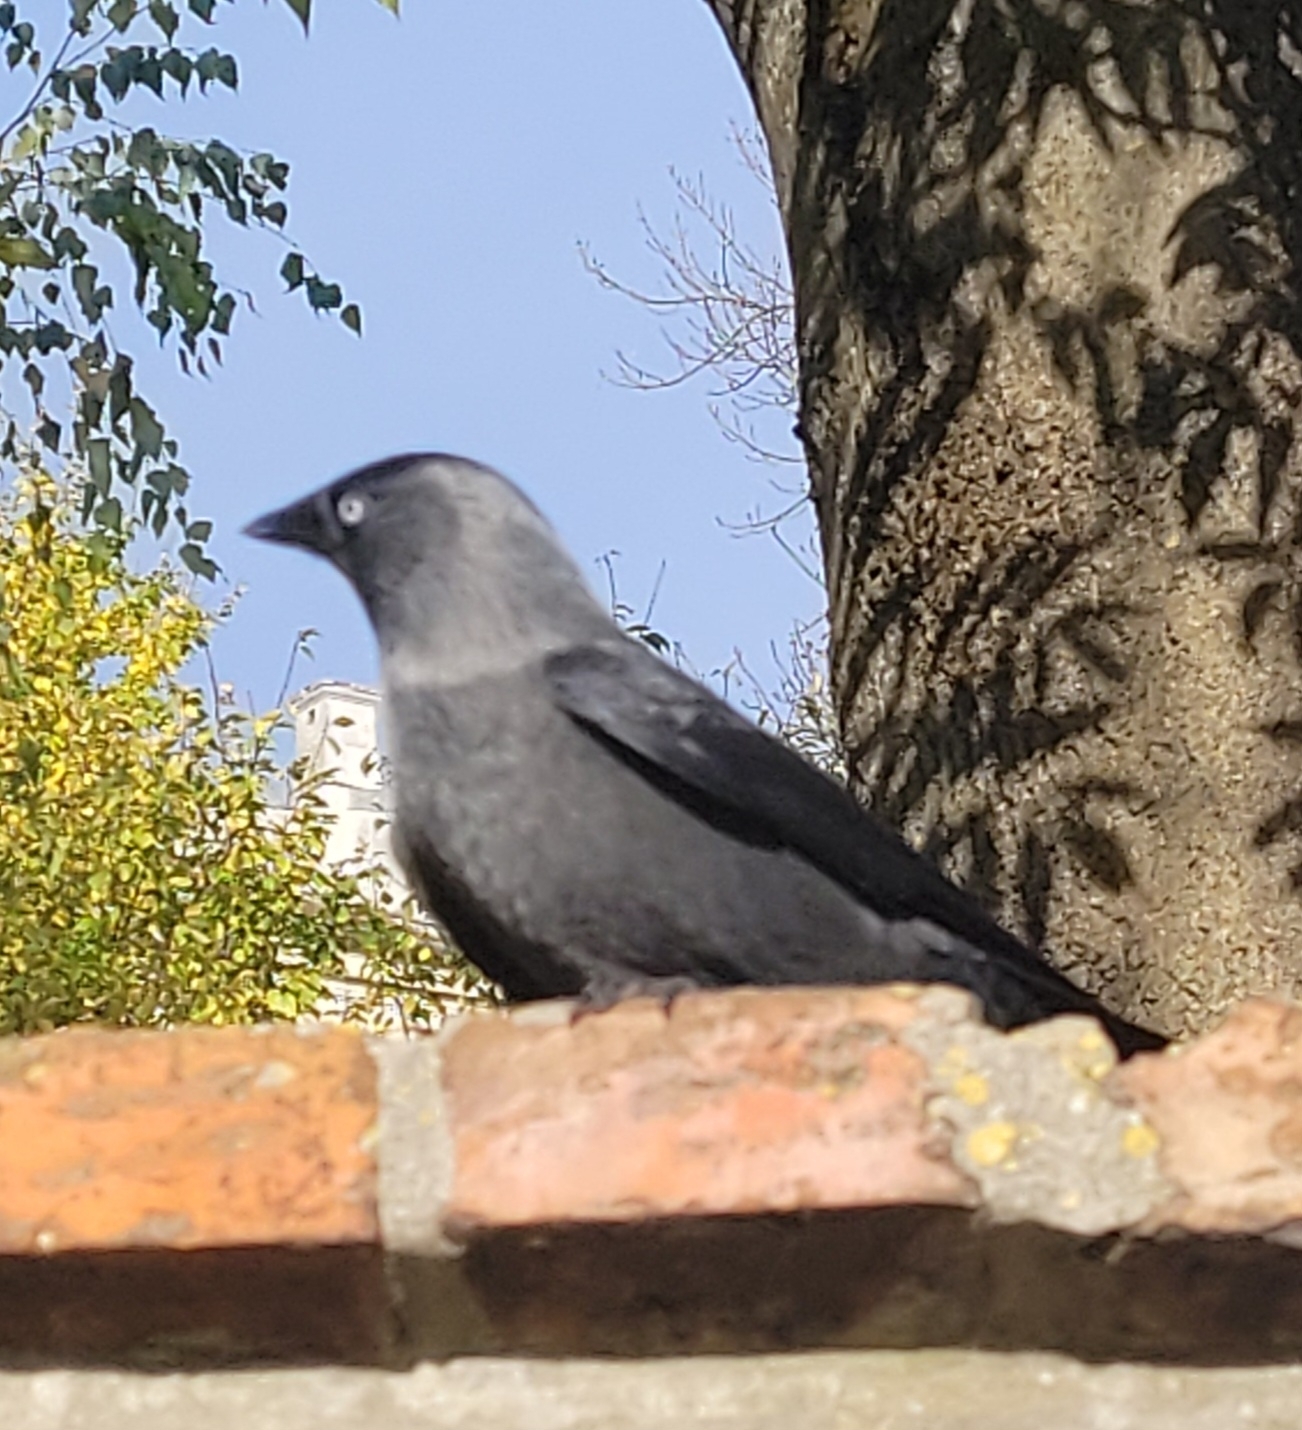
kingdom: Animalia
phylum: Chordata
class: Aves
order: Passeriformes
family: Corvidae
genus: Coloeus
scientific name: Coloeus monedula
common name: Western jackdaw
